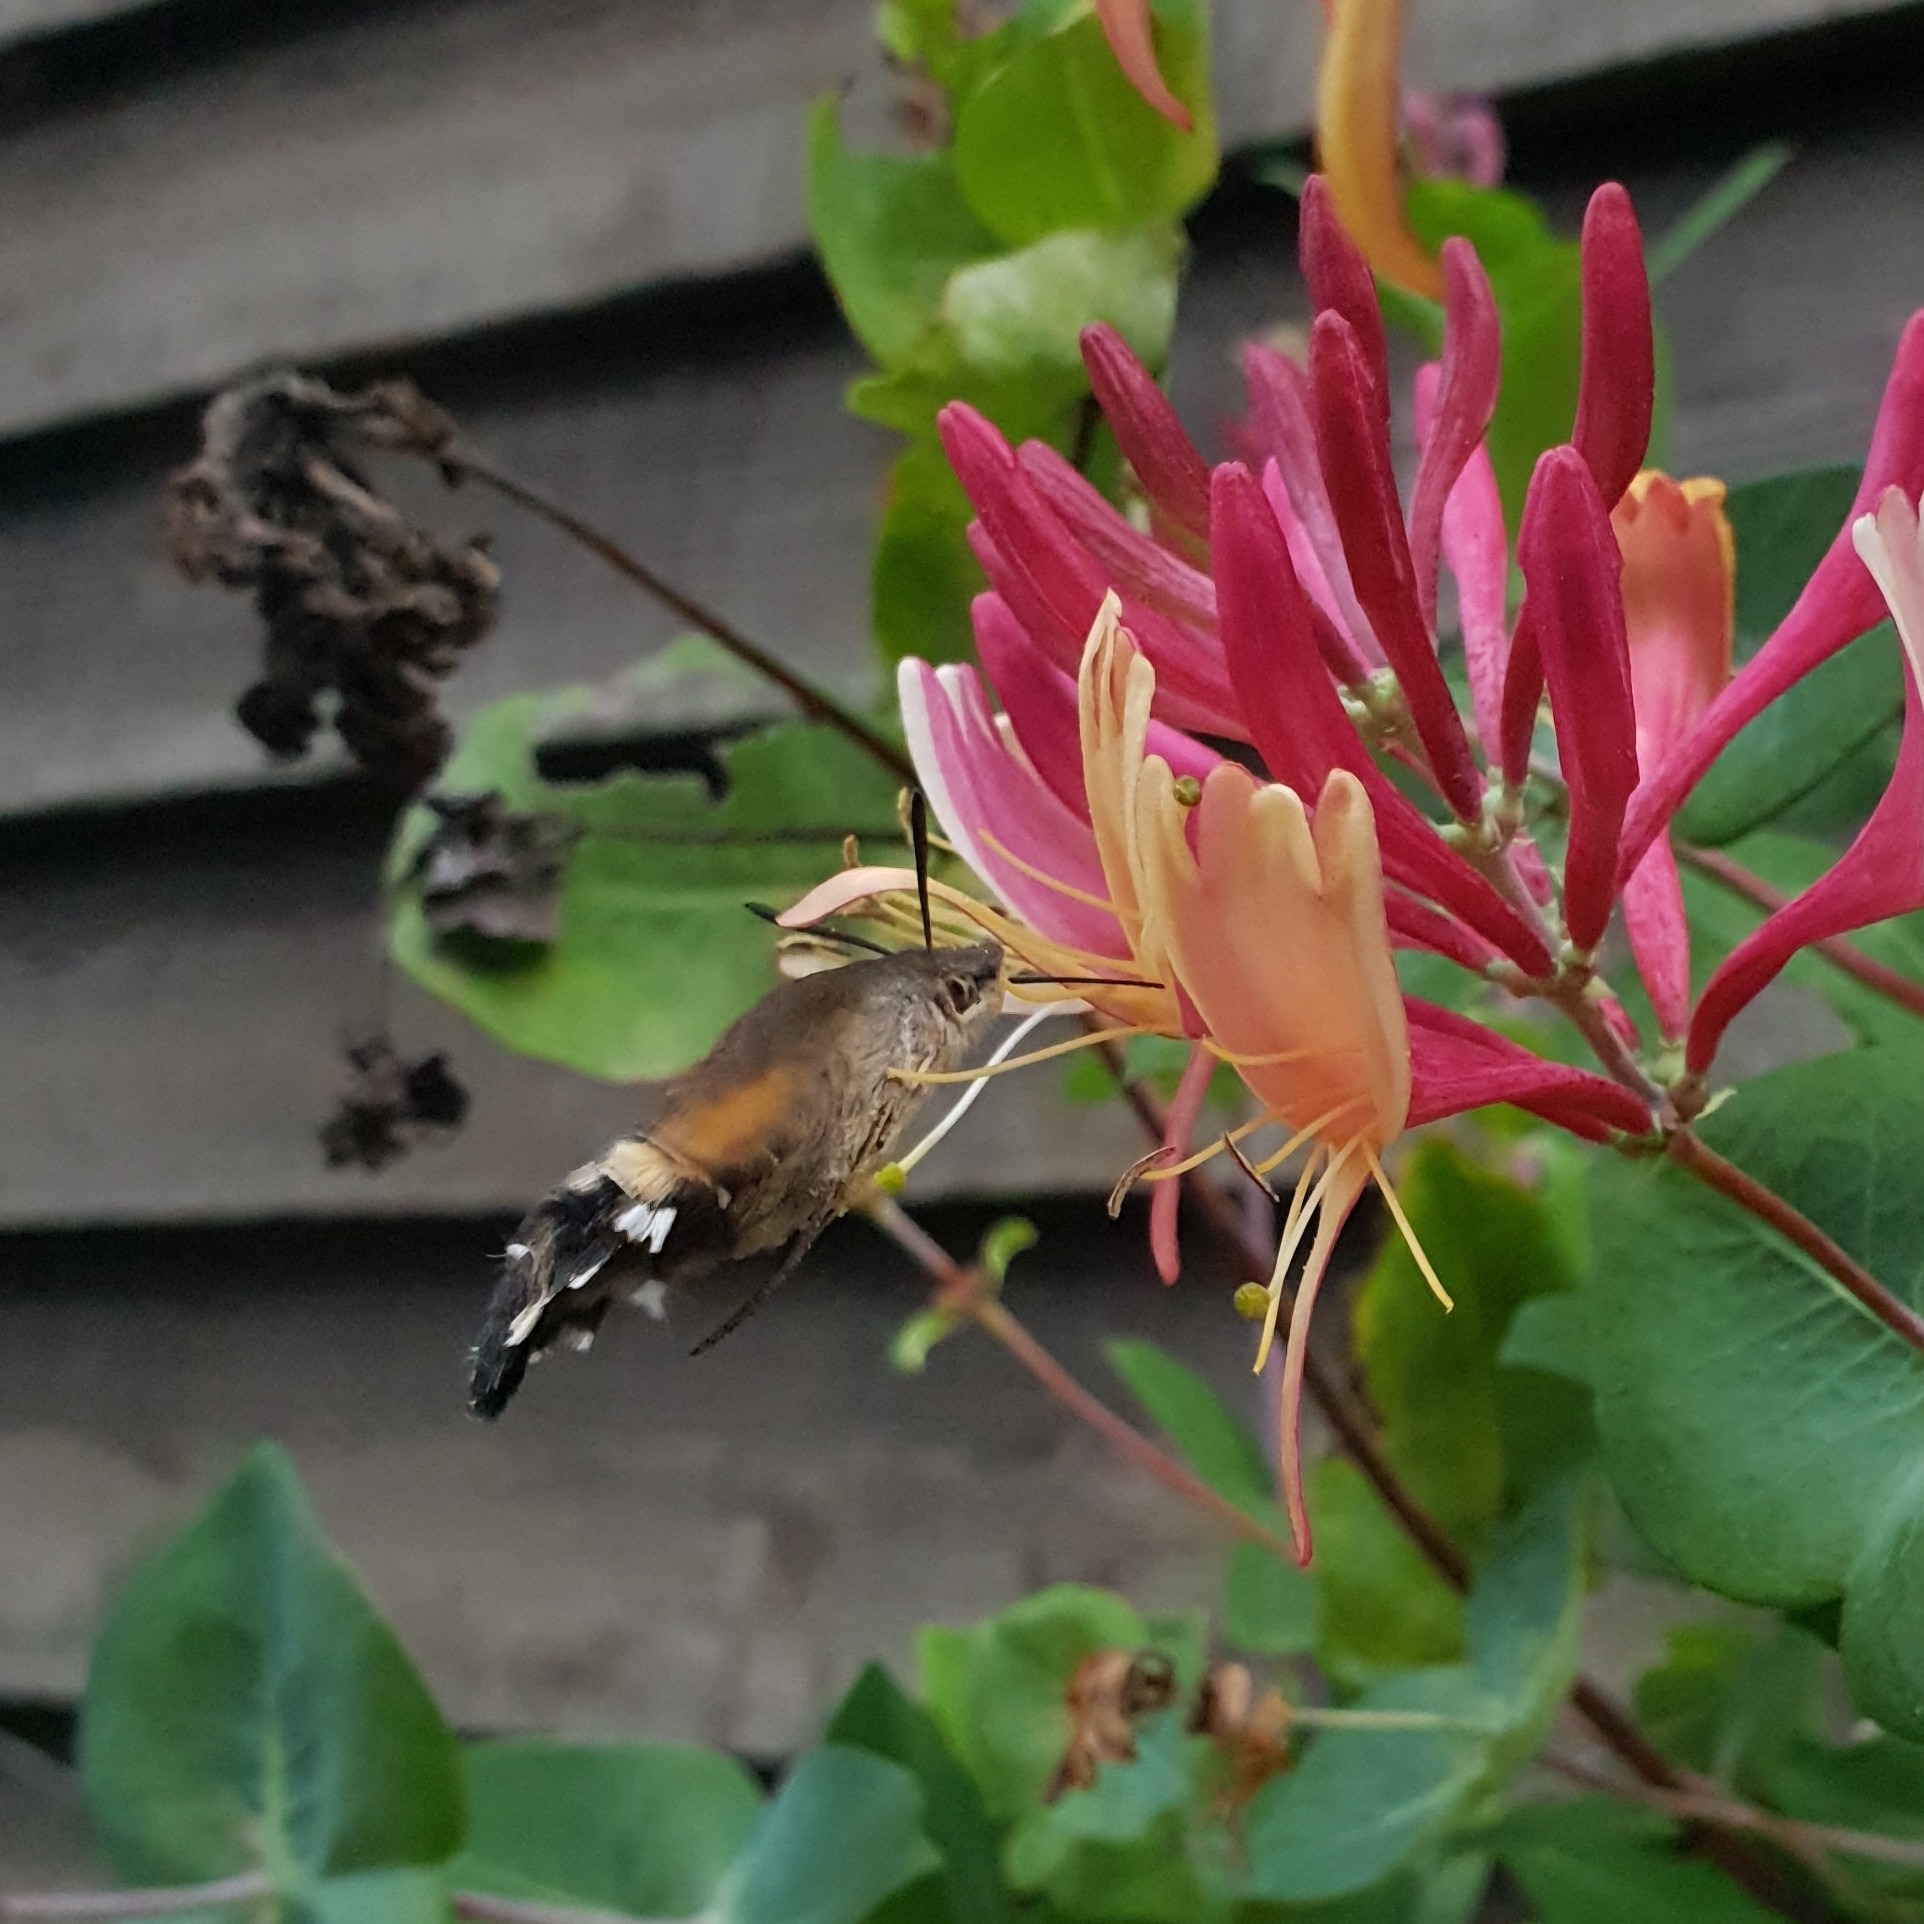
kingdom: Animalia
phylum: Arthropoda
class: Insecta
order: Lepidoptera
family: Sphingidae
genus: Macroglossum
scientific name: Macroglossum stellatarum
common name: Humming-bird hawk-moth
